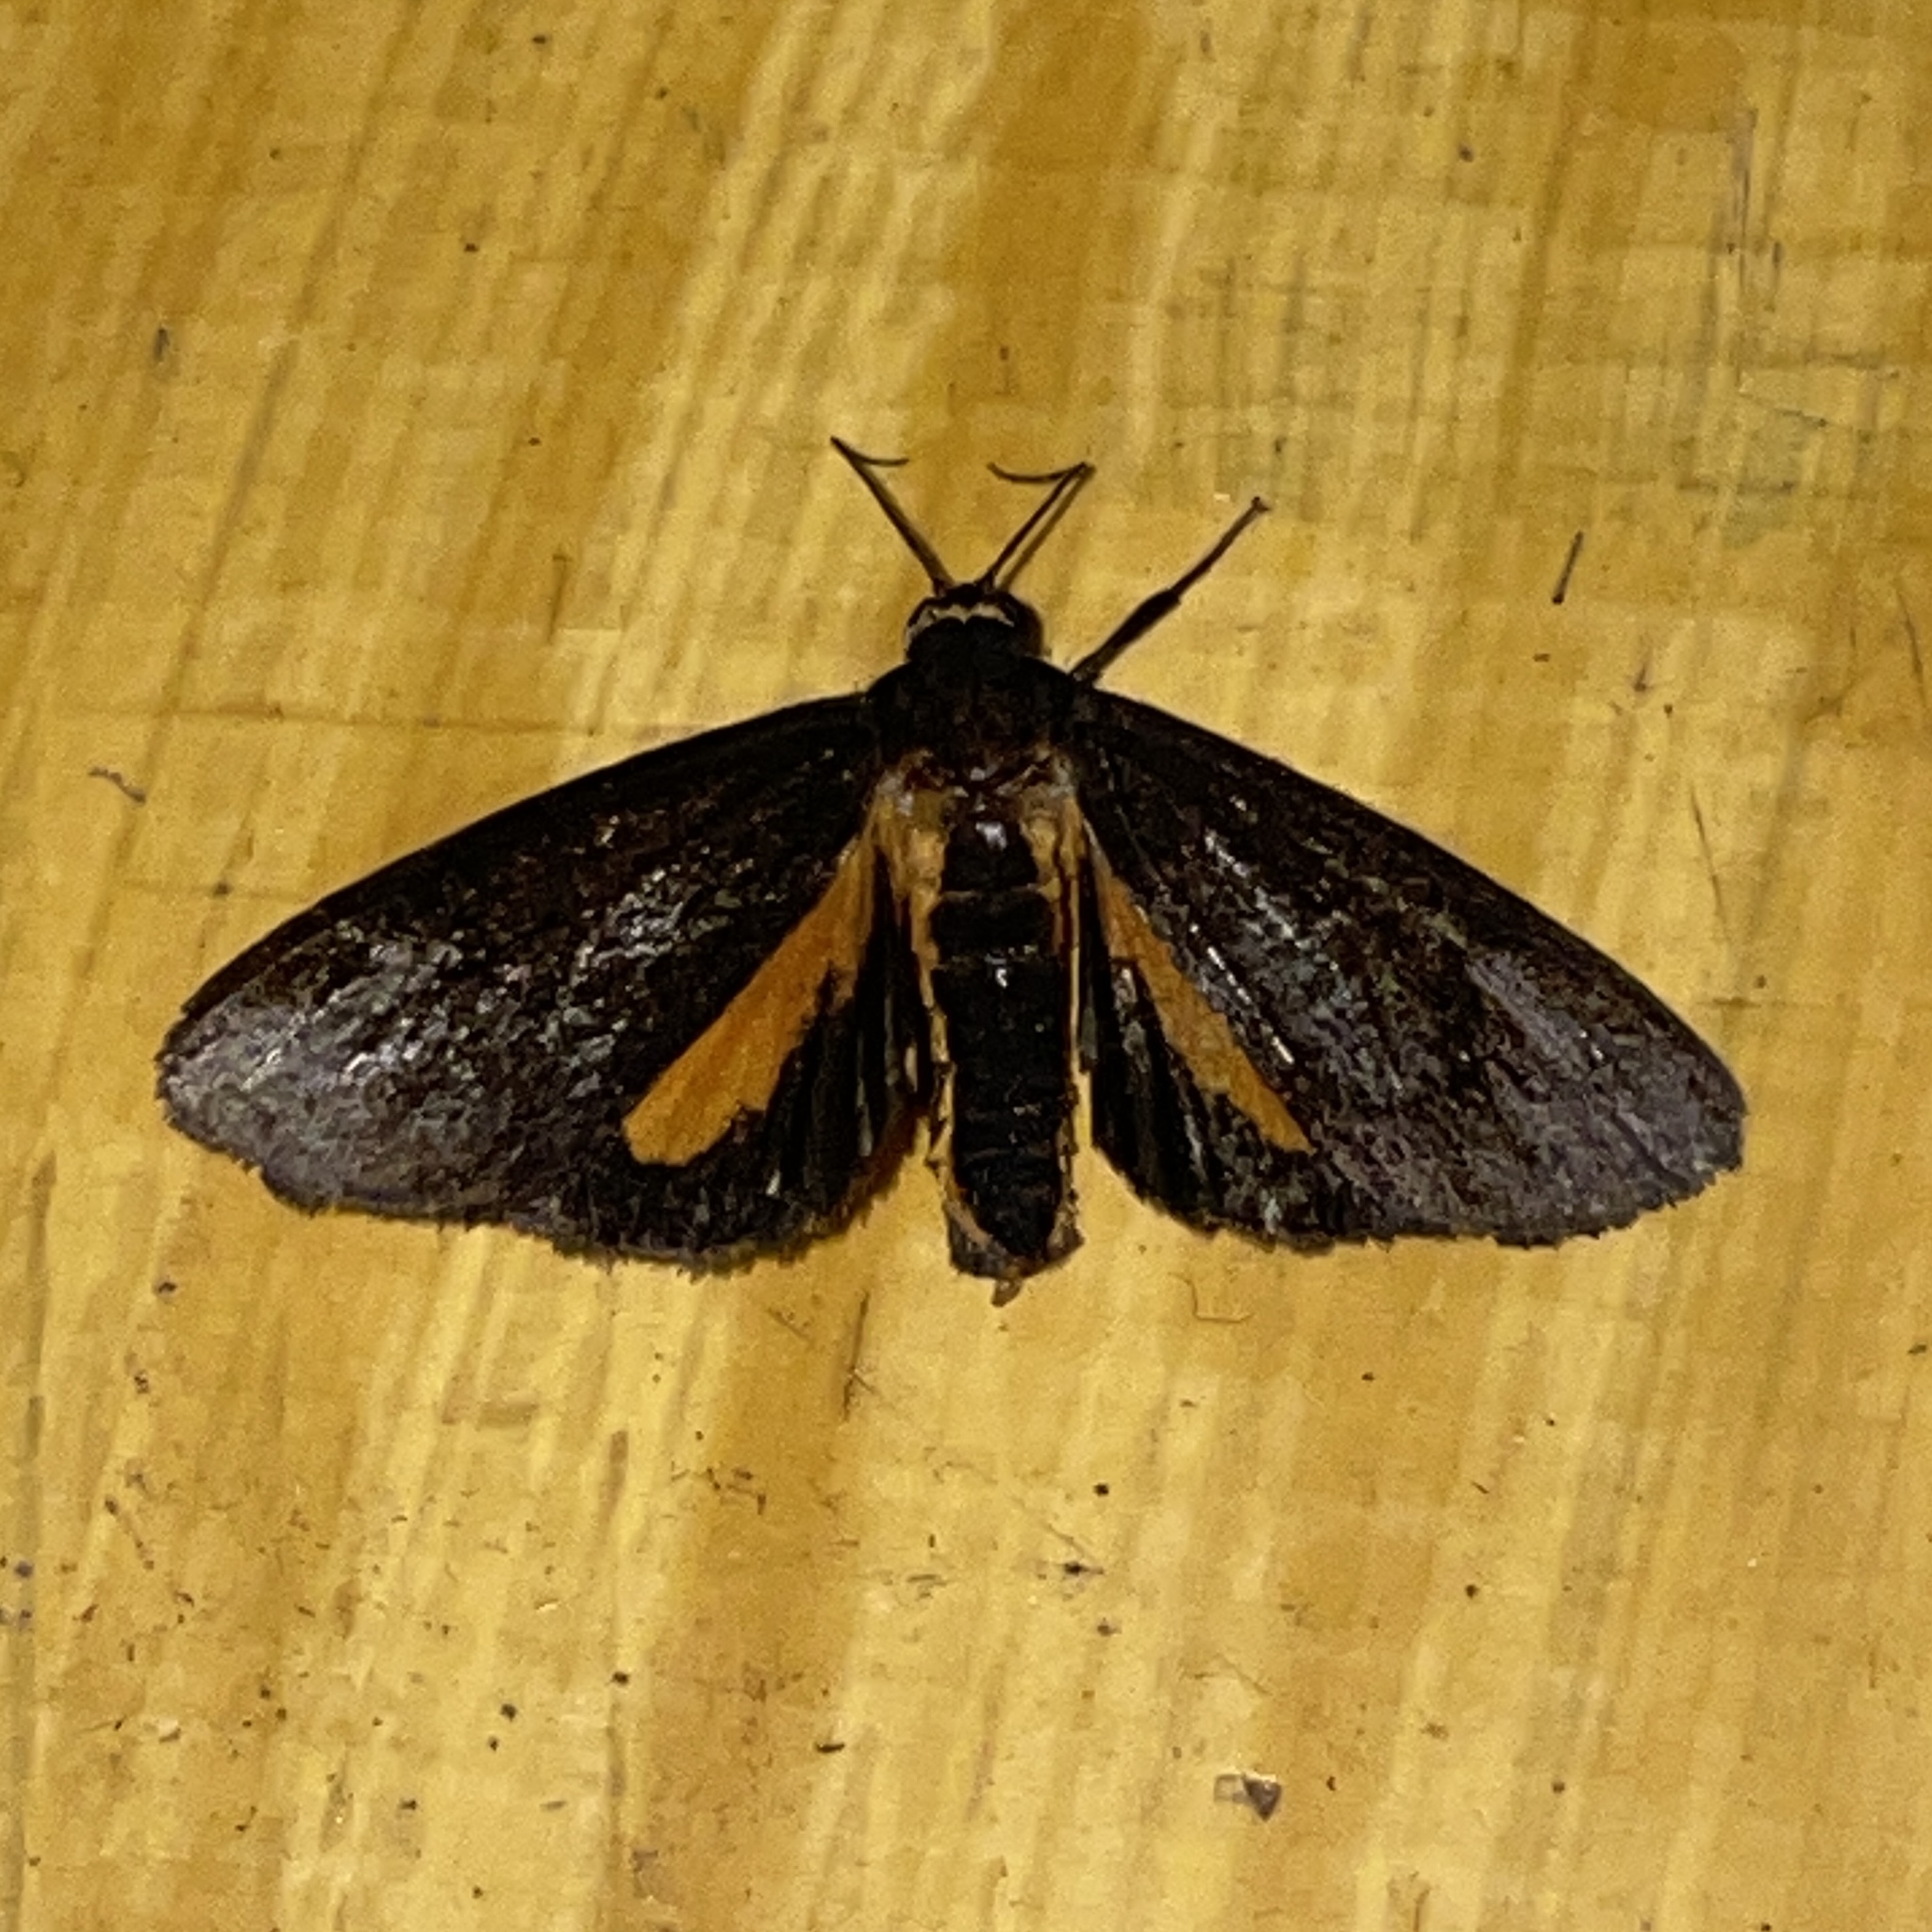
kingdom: Animalia
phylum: Arthropoda
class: Insecta
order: Lepidoptera
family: Erebidae
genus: Virbia
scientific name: Virbia medarda
